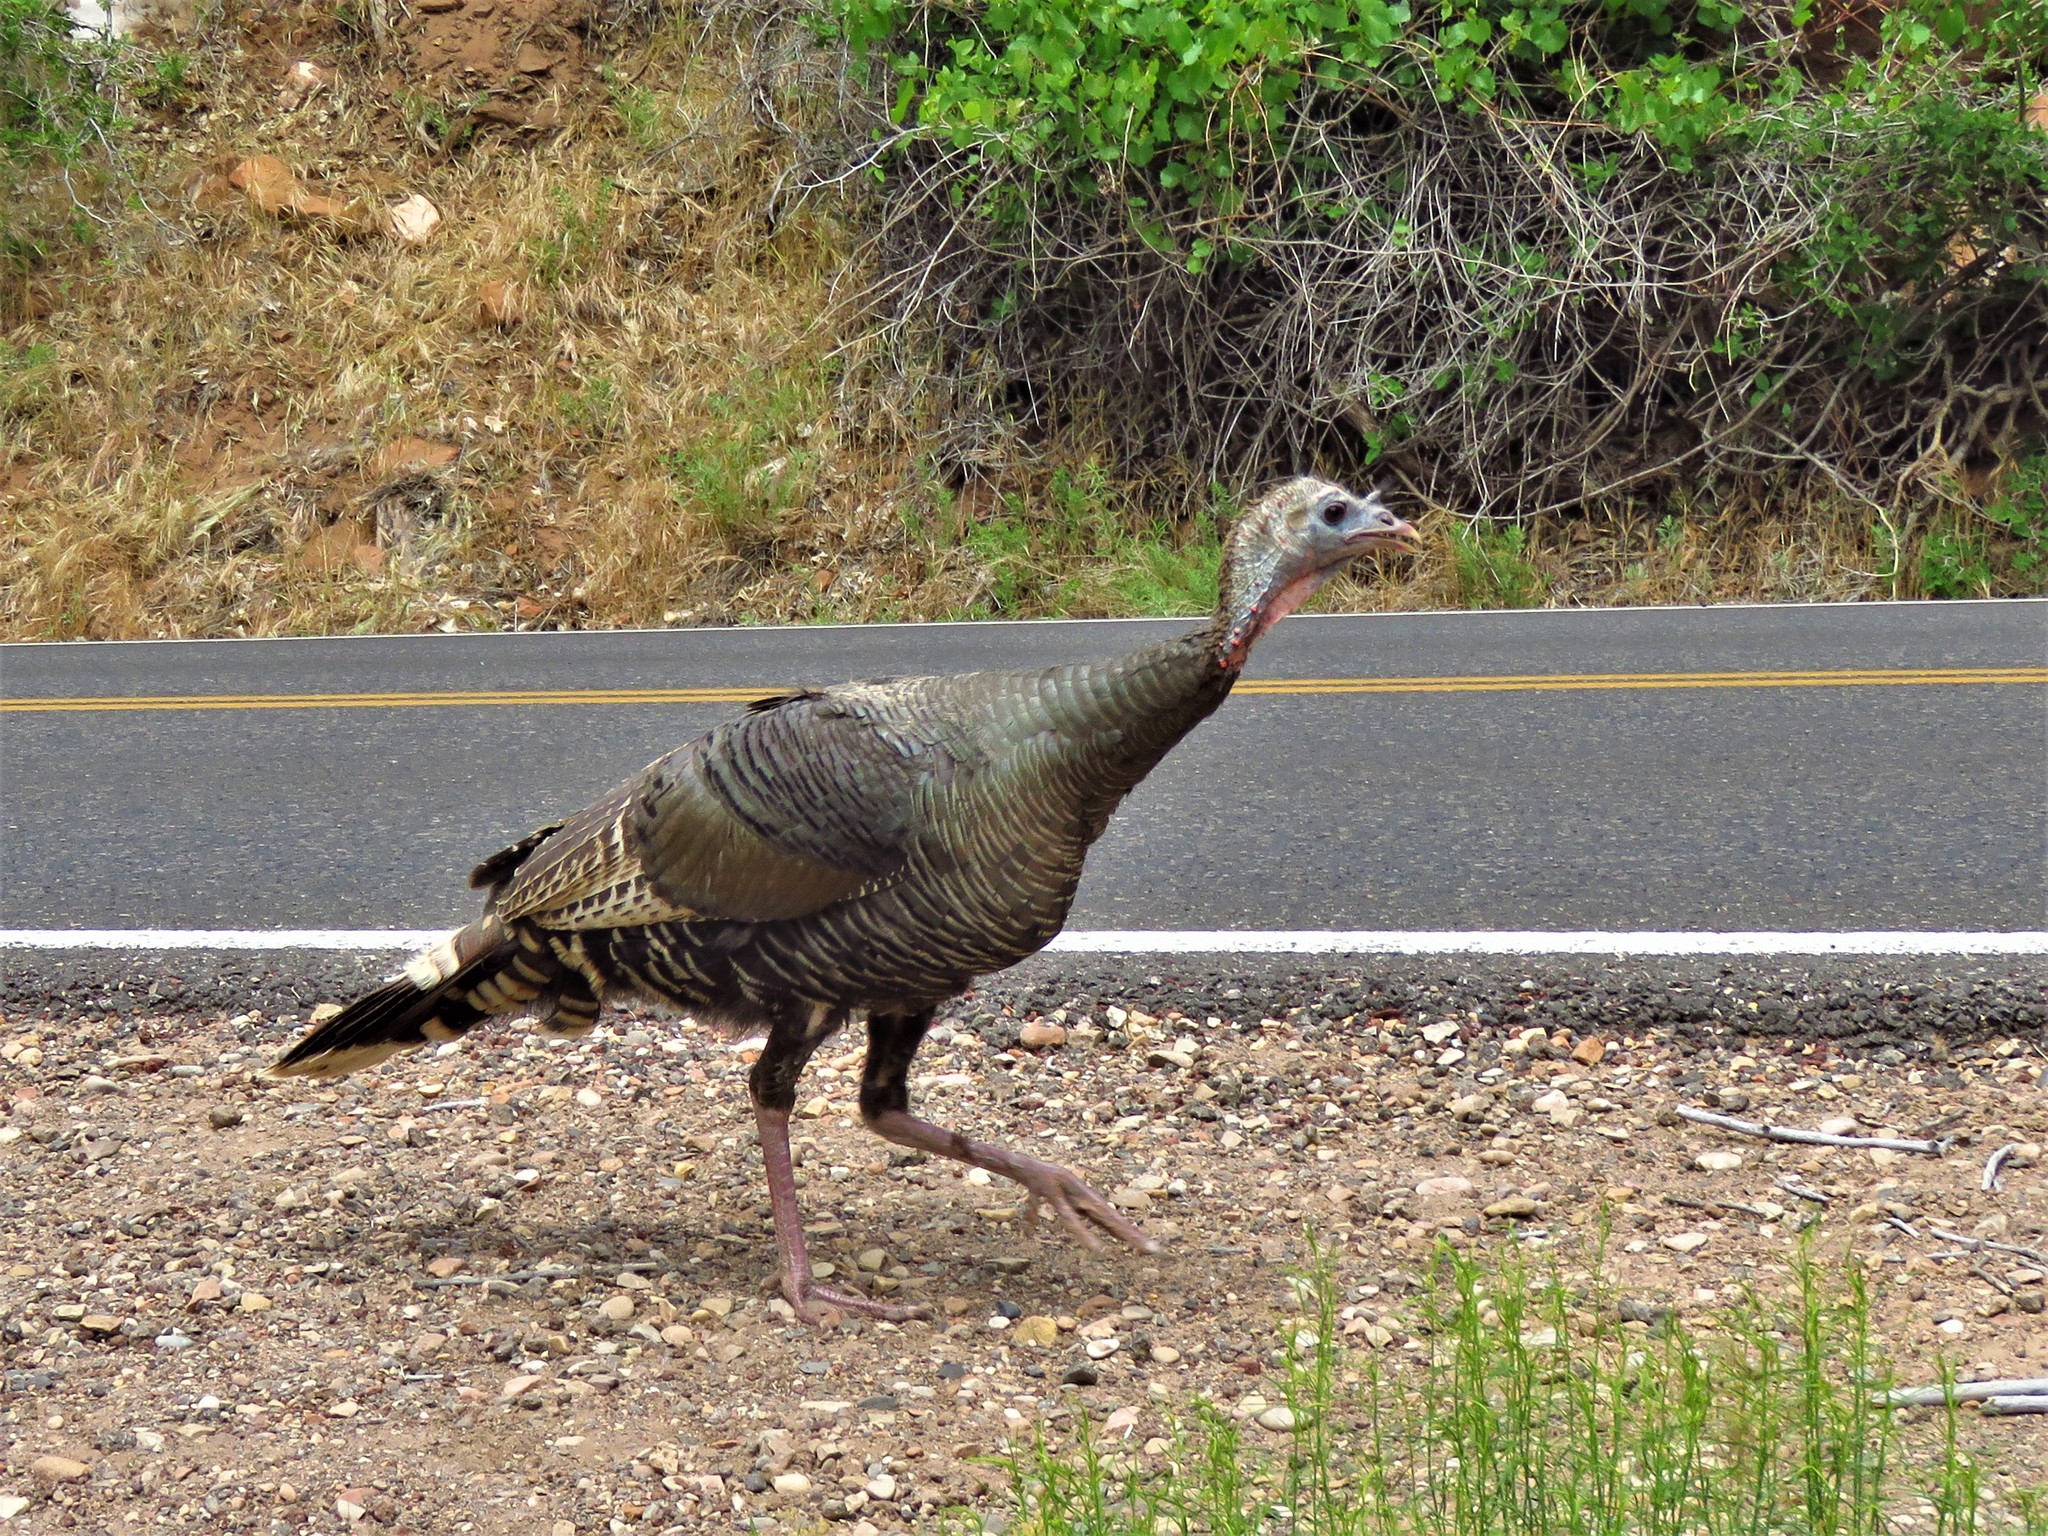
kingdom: Animalia
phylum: Chordata
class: Aves
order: Galliformes
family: Phasianidae
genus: Meleagris
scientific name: Meleagris gallopavo
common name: Wild turkey
